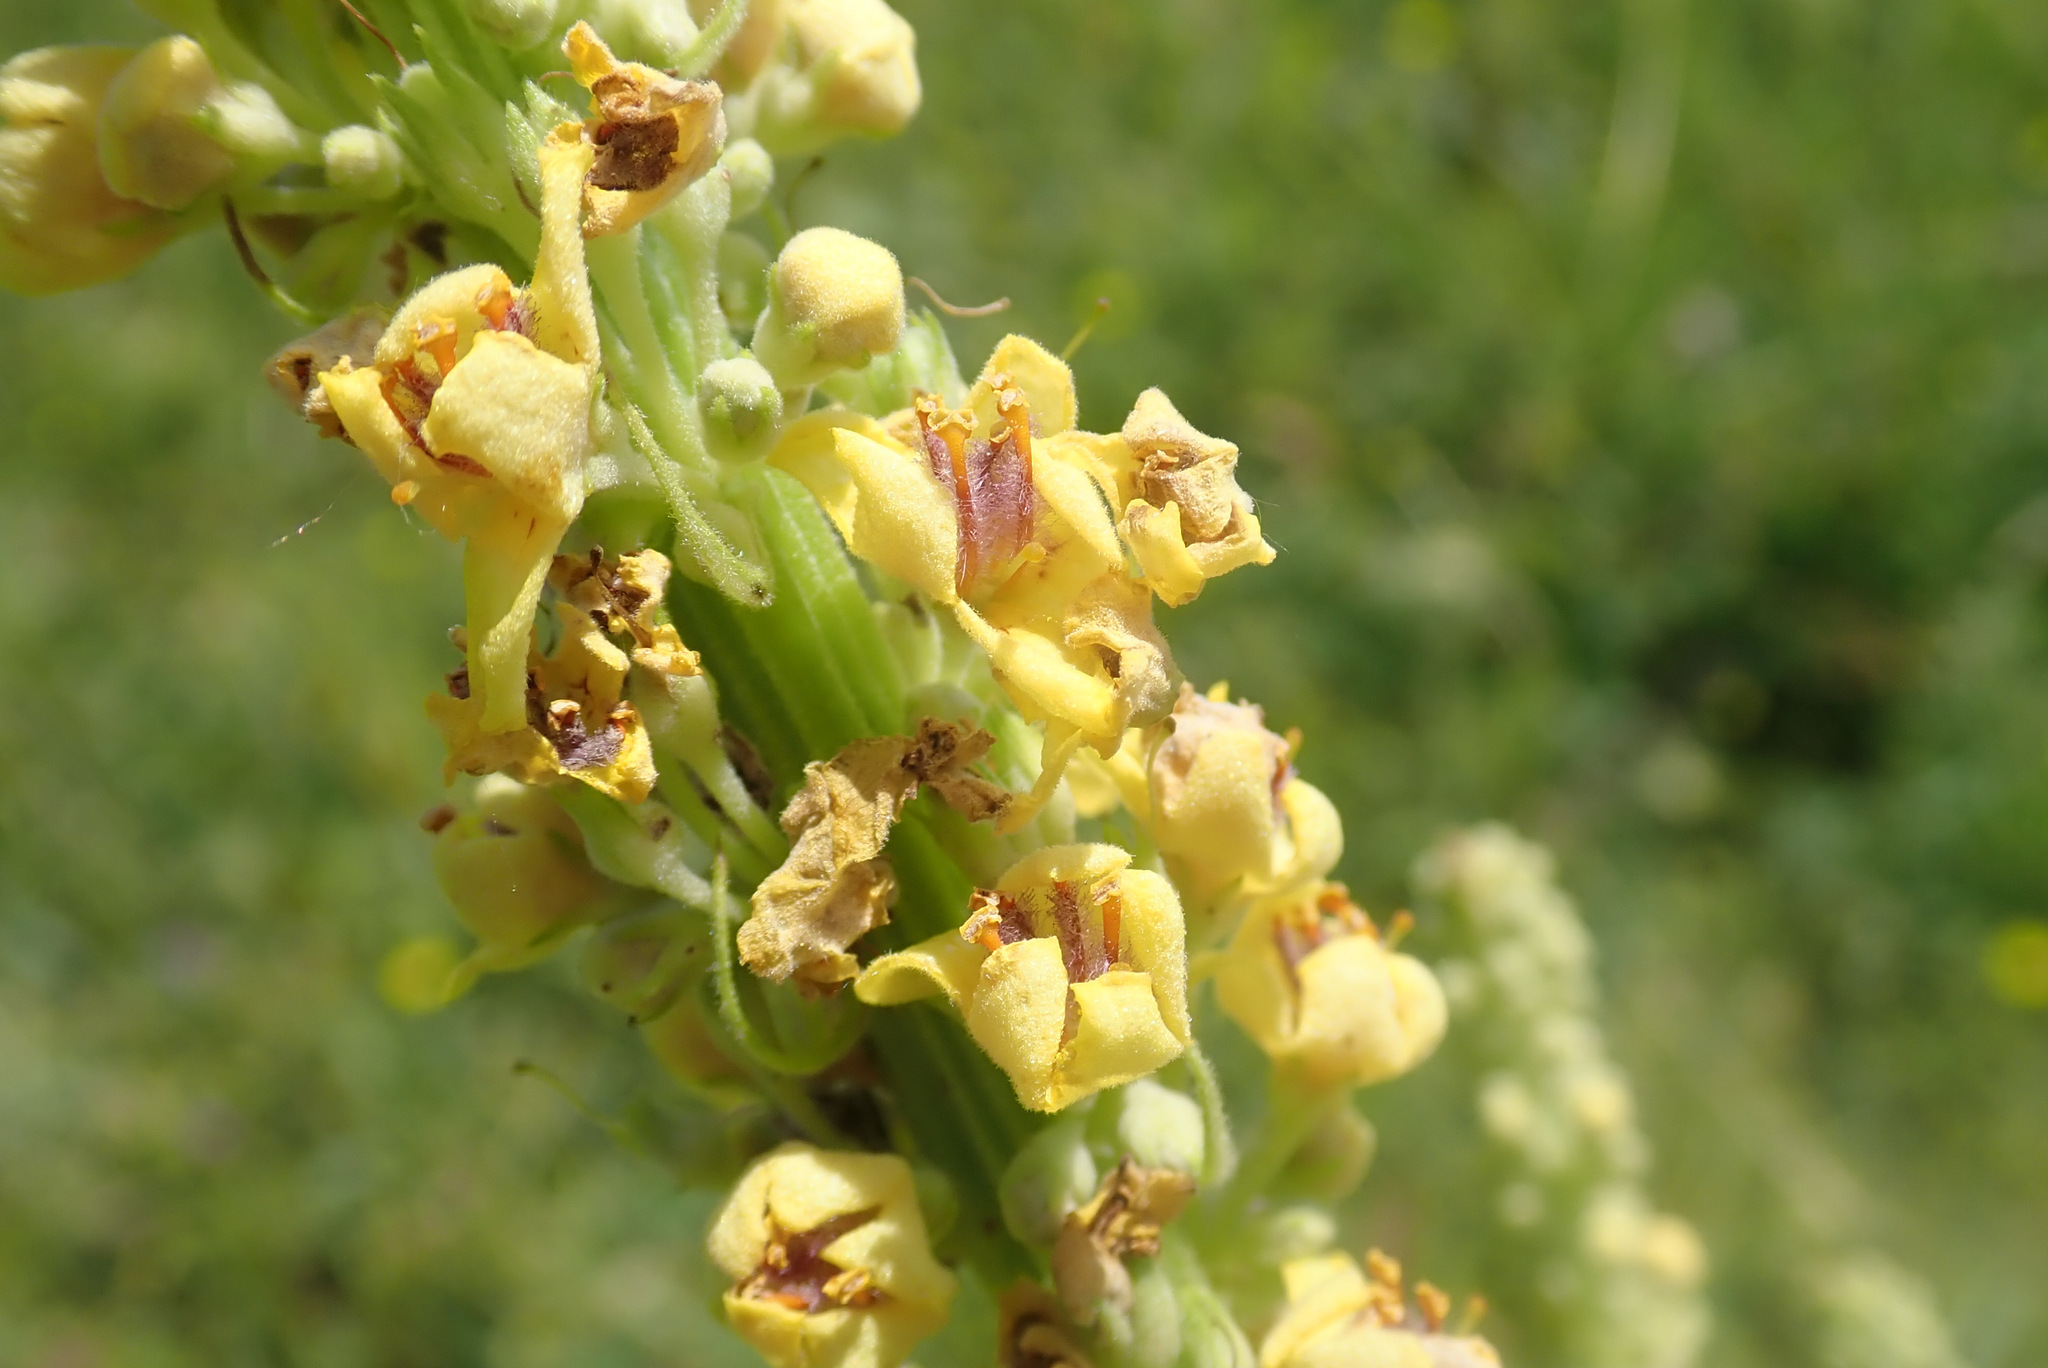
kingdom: Plantae
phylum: Tracheophyta
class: Magnoliopsida
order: Lamiales
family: Scrophulariaceae
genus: Verbascum
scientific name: Verbascum nigrum
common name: Dark mullein
